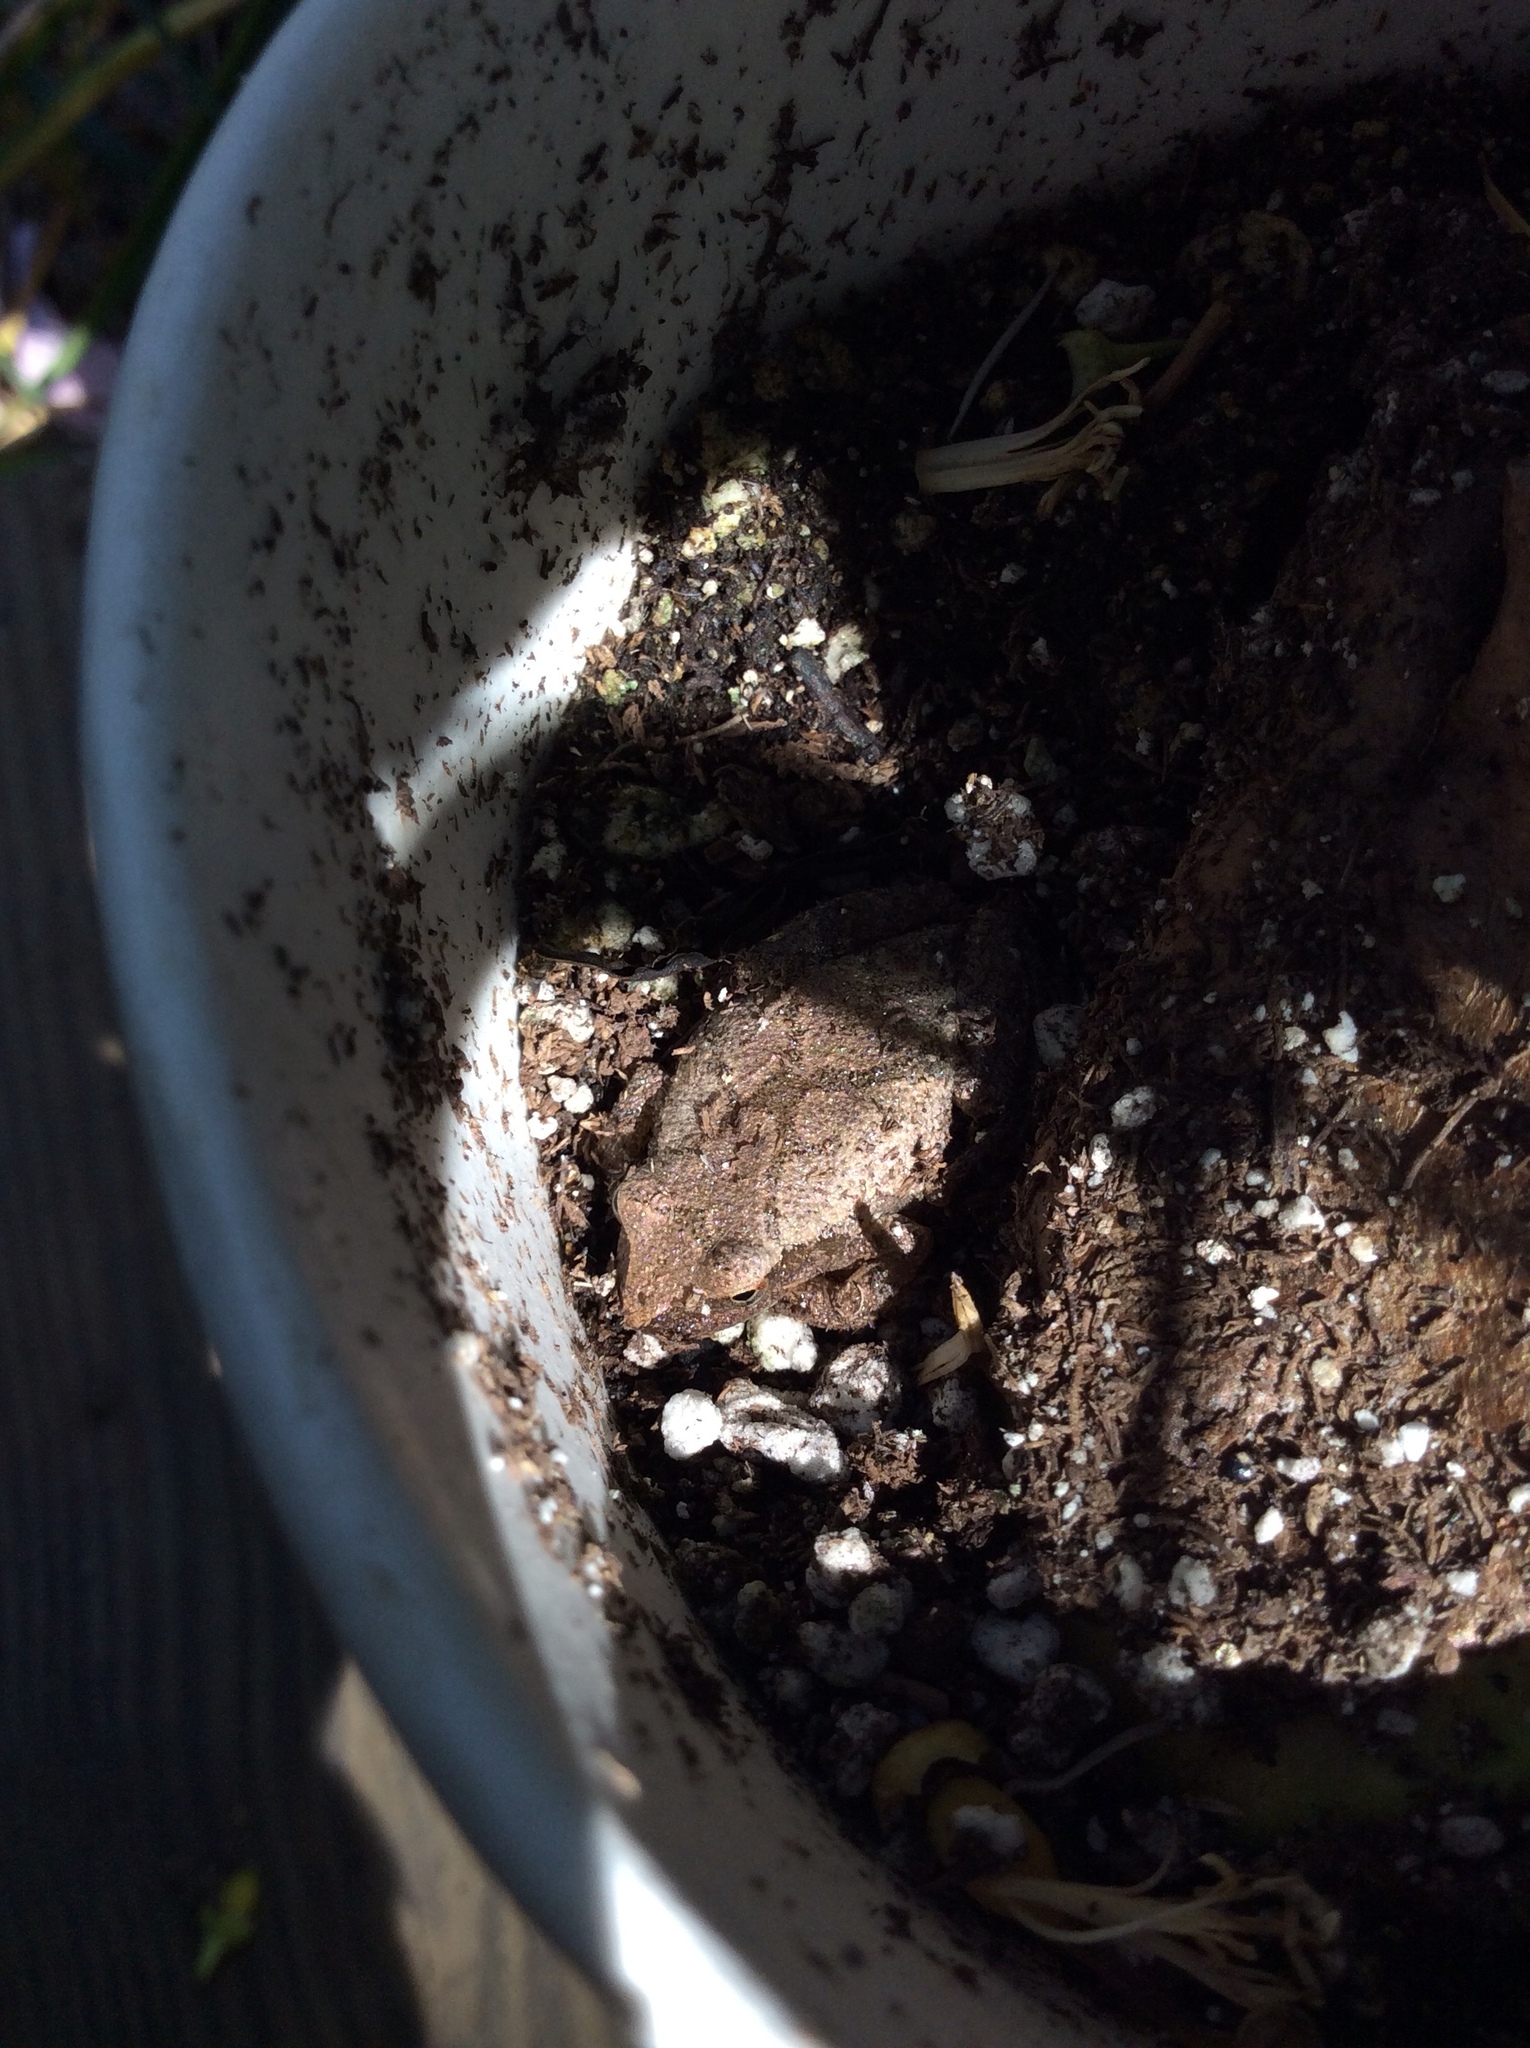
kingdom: Animalia
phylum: Chordata
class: Amphibia
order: Anura
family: Hylidae
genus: Pseudacris
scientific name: Pseudacris crucifer
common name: Spring peeper
